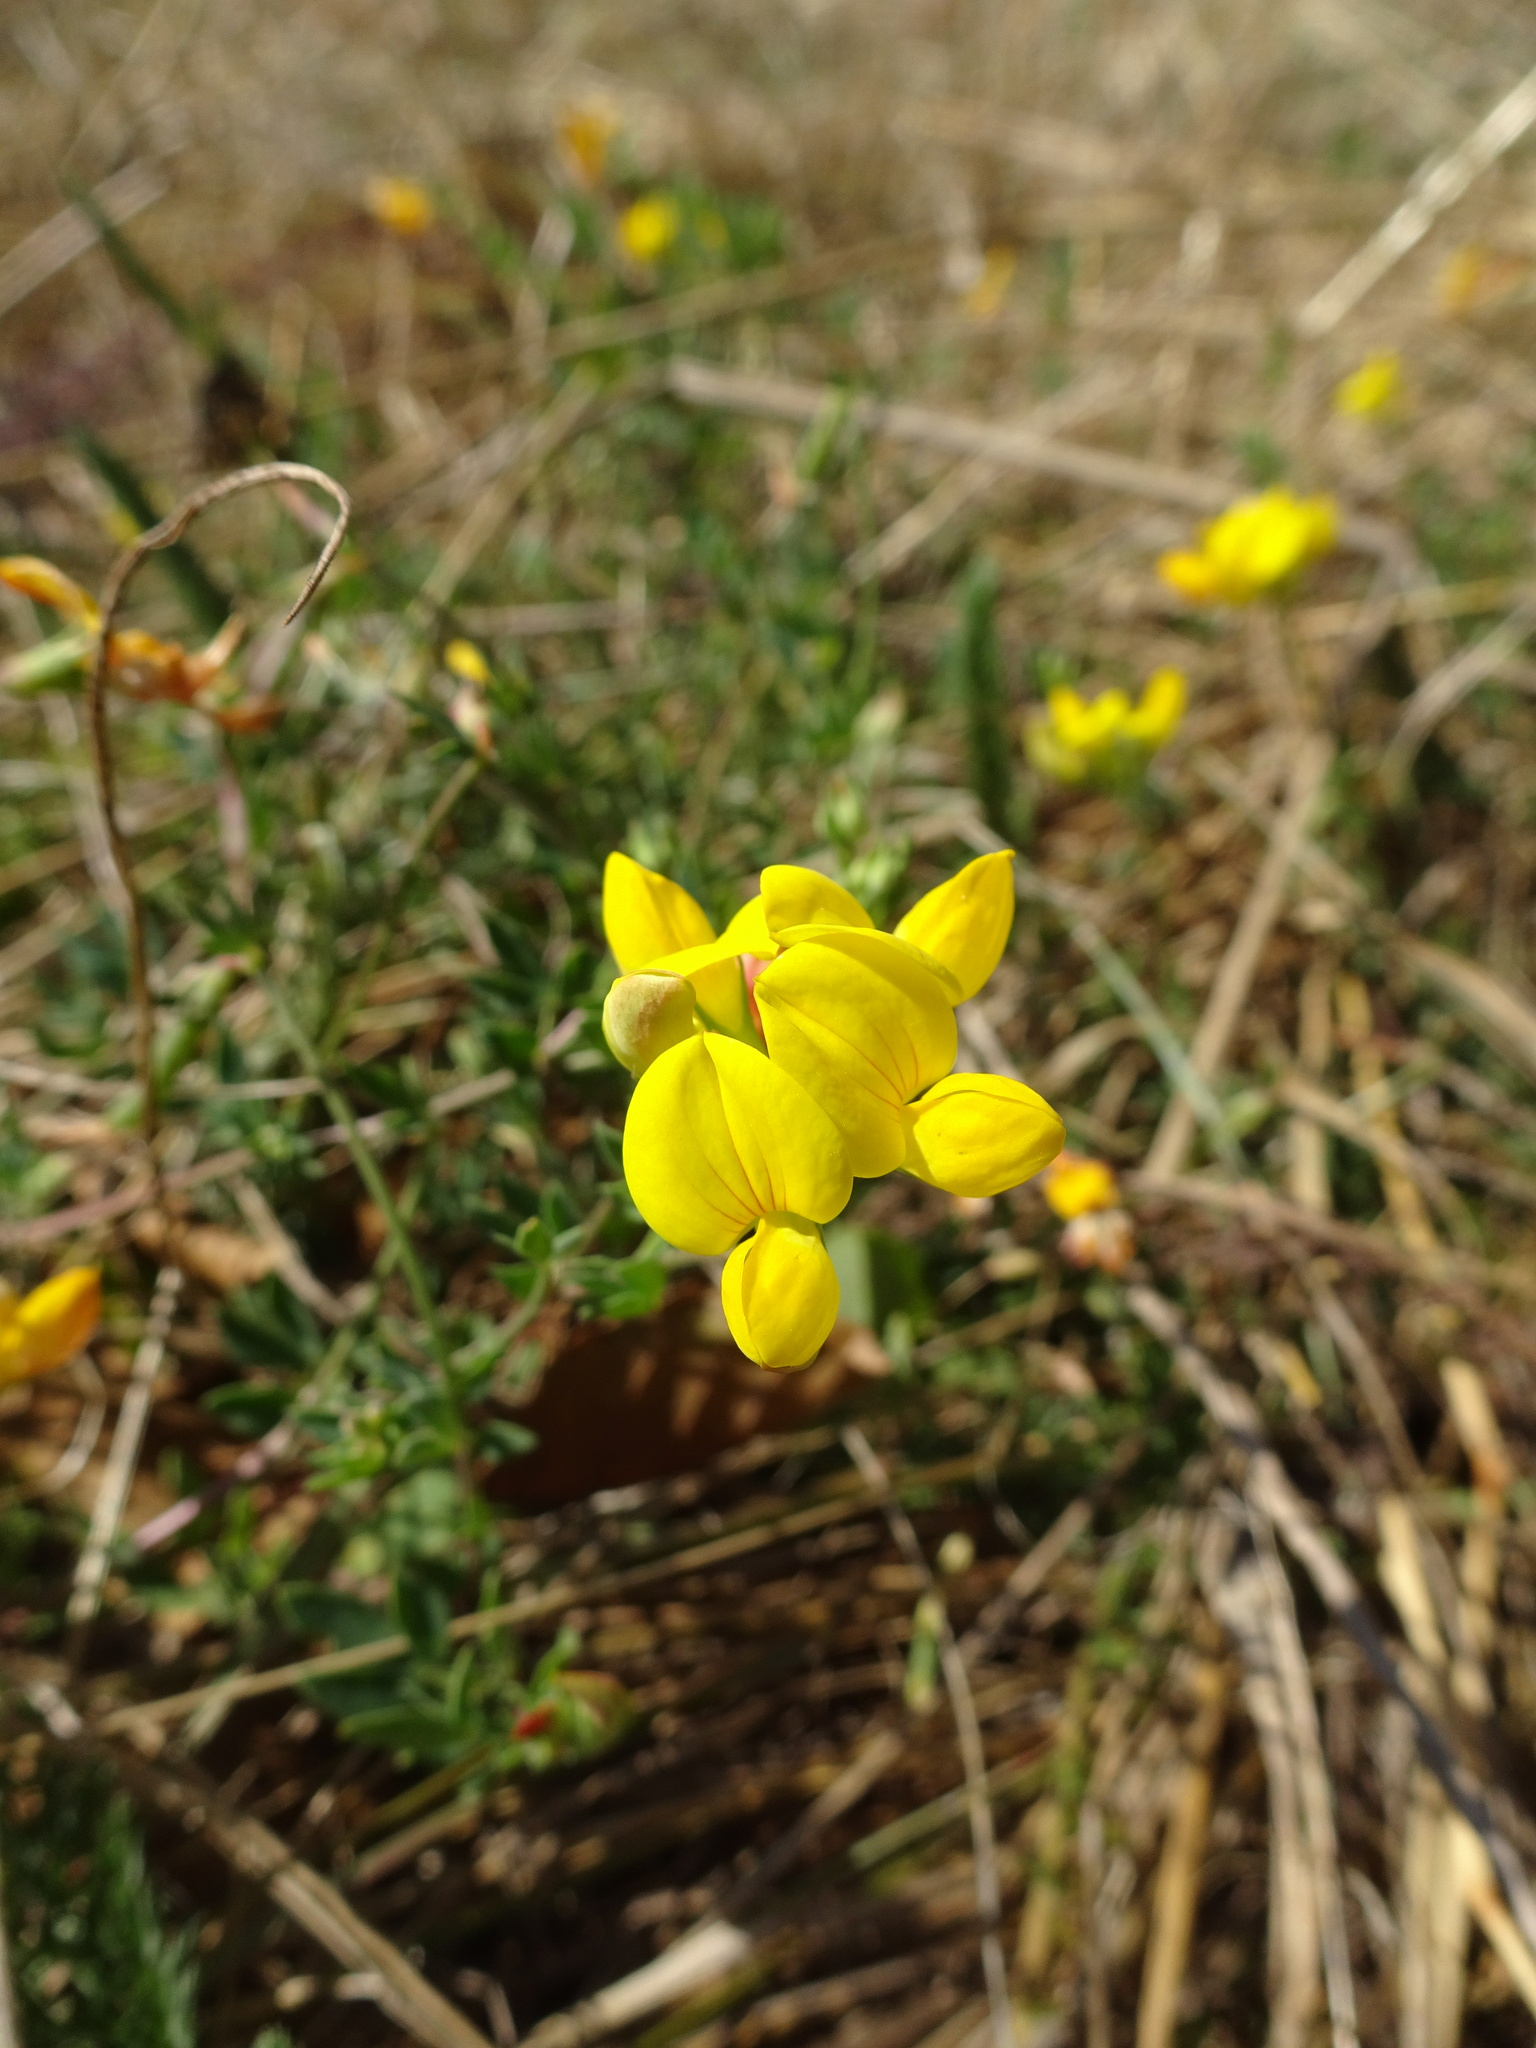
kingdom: Plantae
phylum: Tracheophyta
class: Magnoliopsida
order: Fabales
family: Fabaceae
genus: Lotus
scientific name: Lotus corniculatus
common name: Common bird's-foot-trefoil
